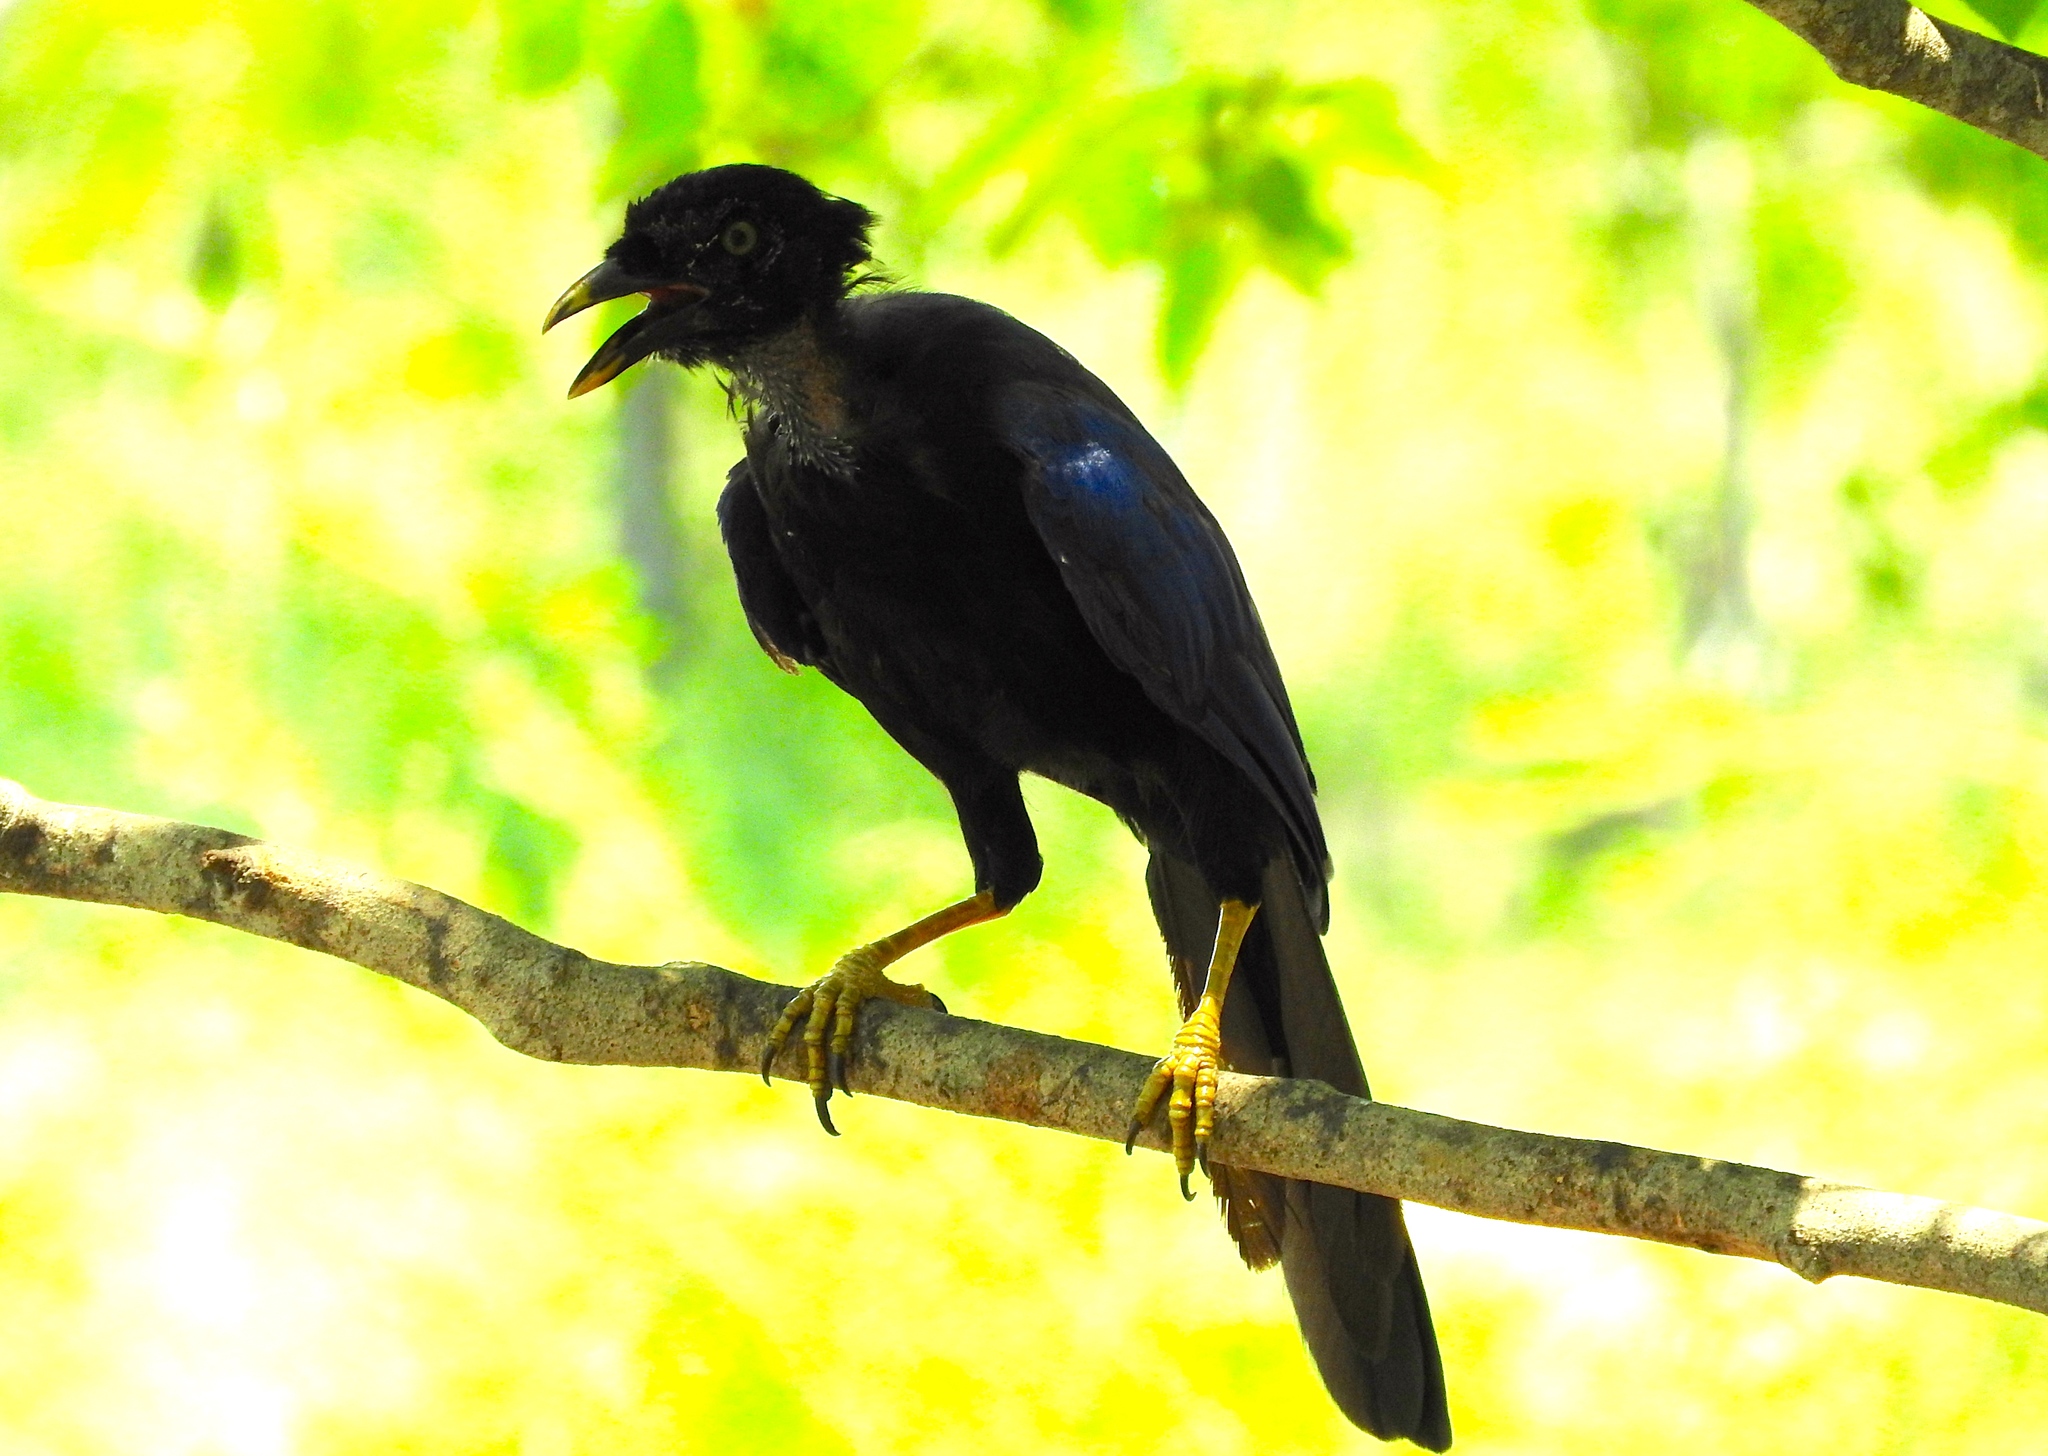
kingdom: Animalia
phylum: Chordata
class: Aves
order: Passeriformes
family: Corvidae
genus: Cyanocorax
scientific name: Cyanocorax beecheii
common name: Purplish-backed jay
